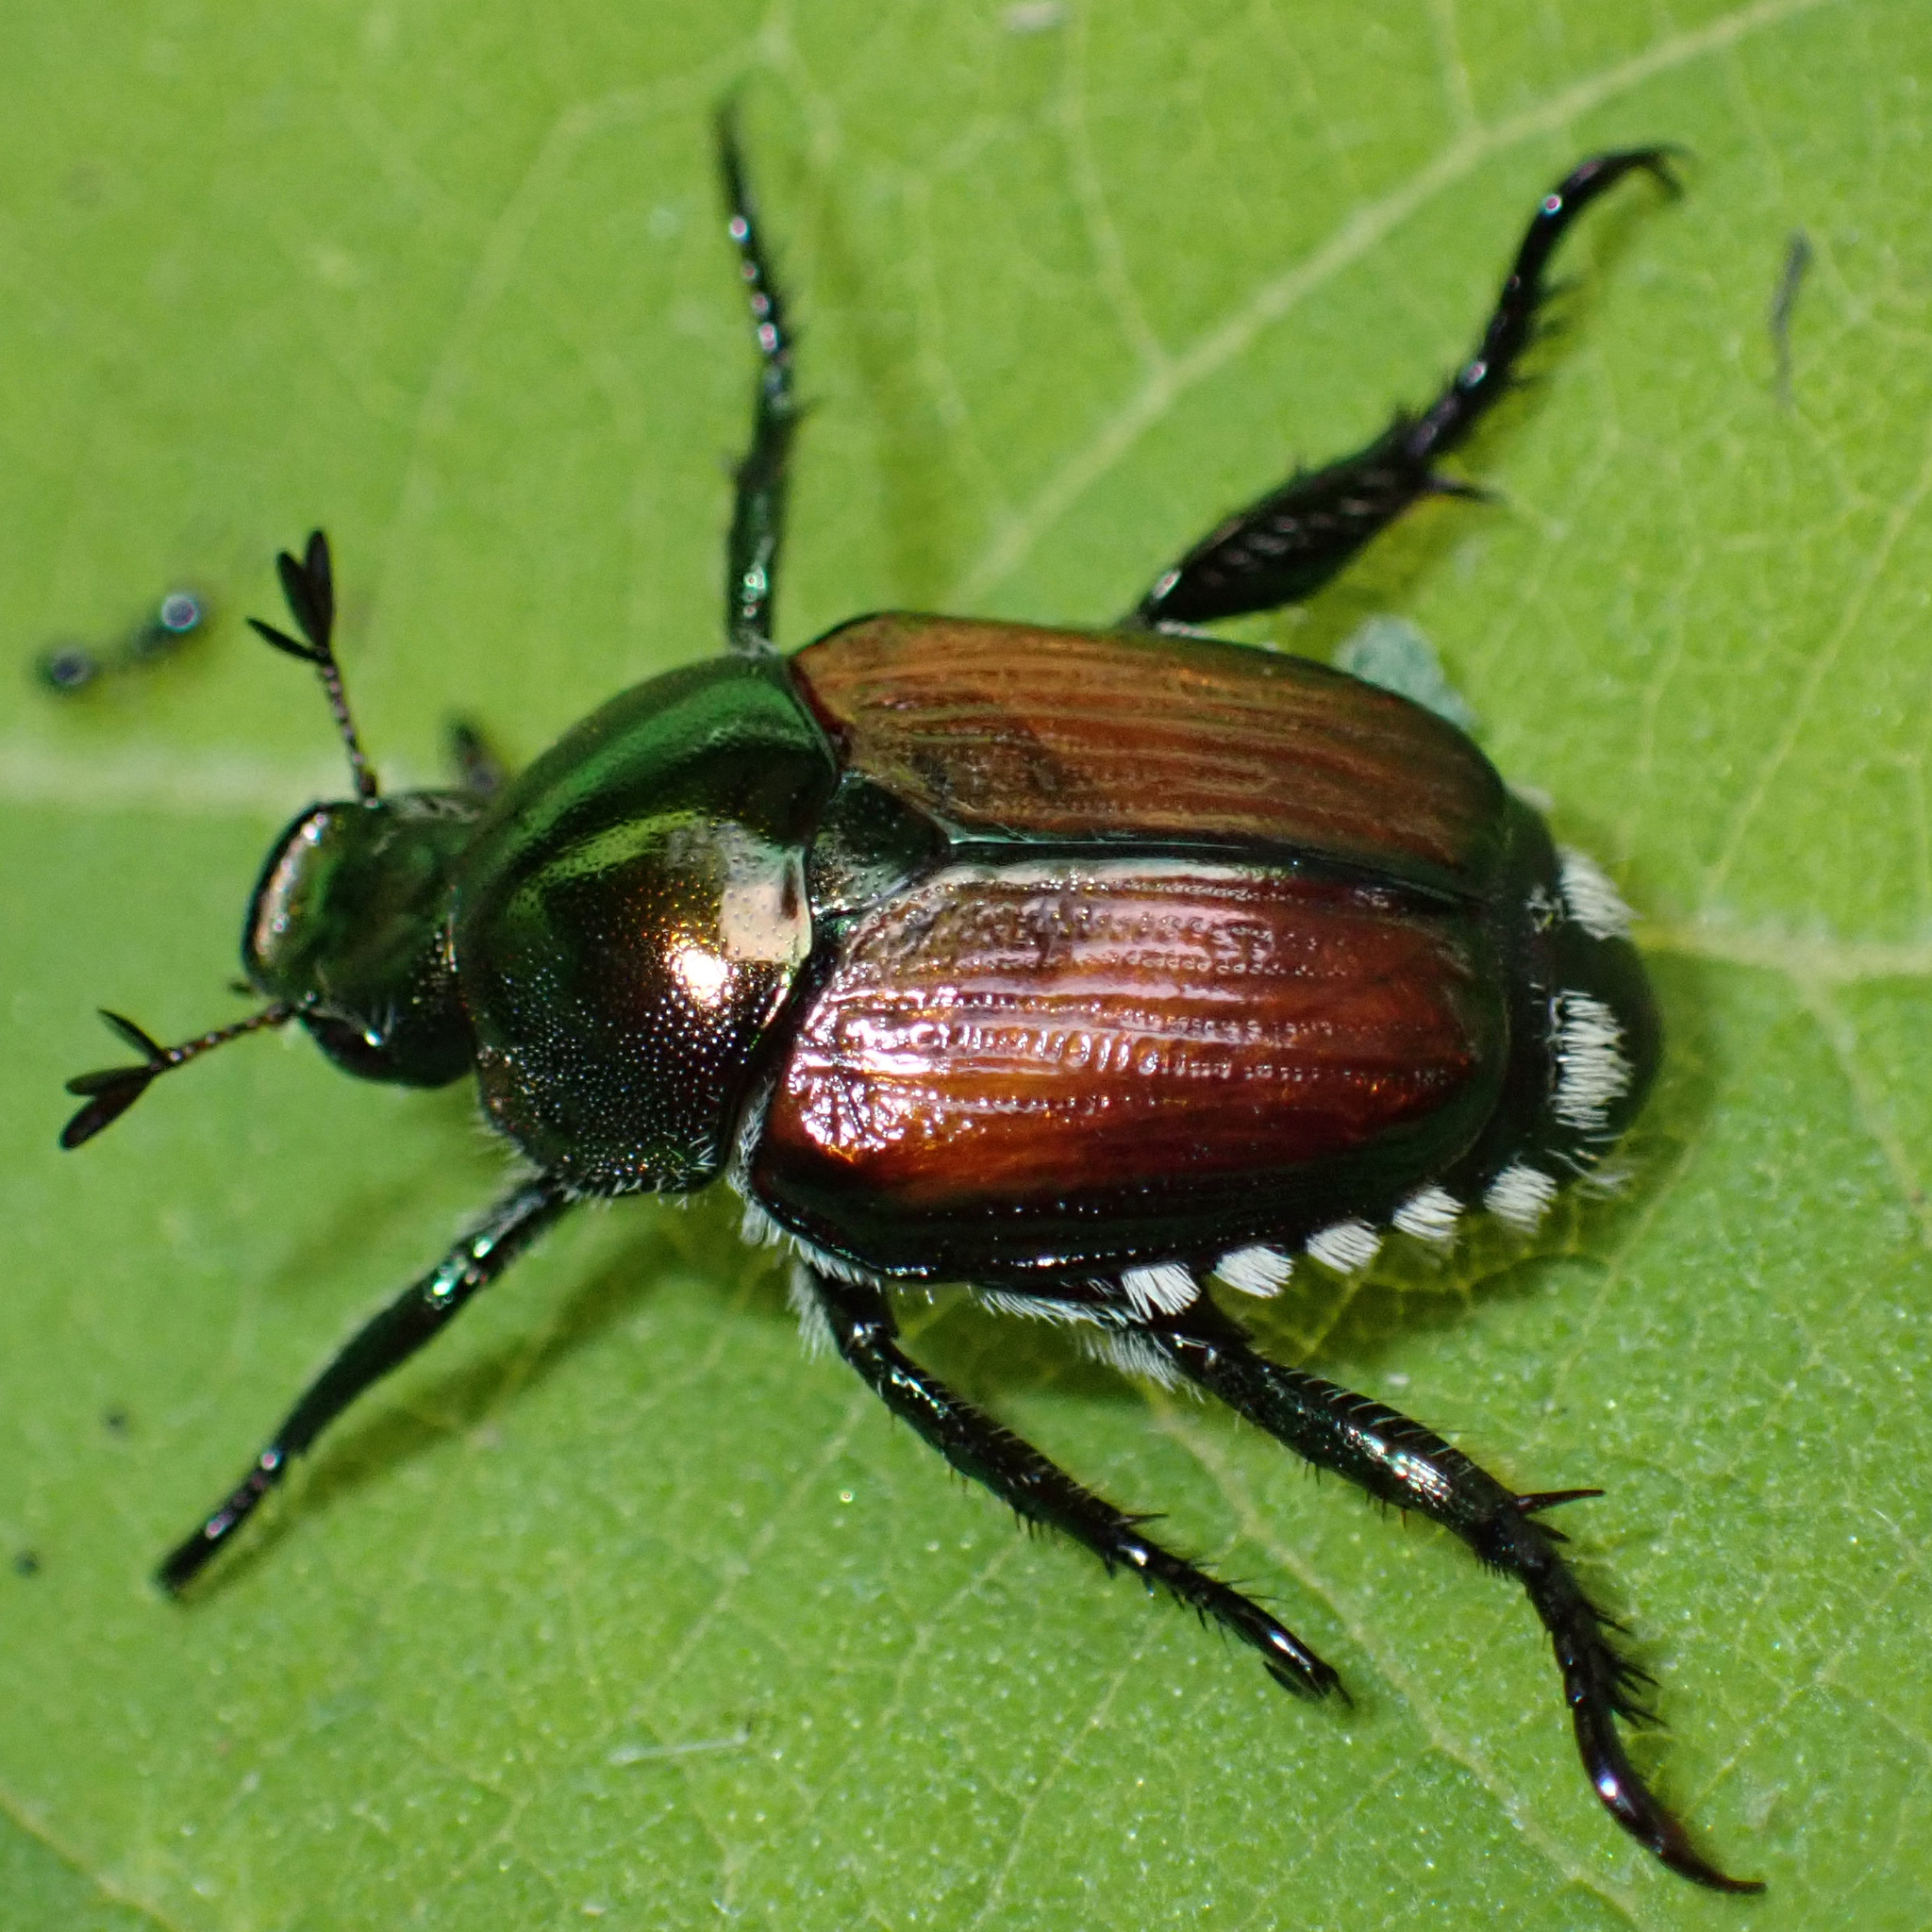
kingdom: Animalia
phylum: Arthropoda
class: Insecta
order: Coleoptera
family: Scarabaeidae
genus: Popillia
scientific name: Popillia japonica
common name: Japanese beetle
